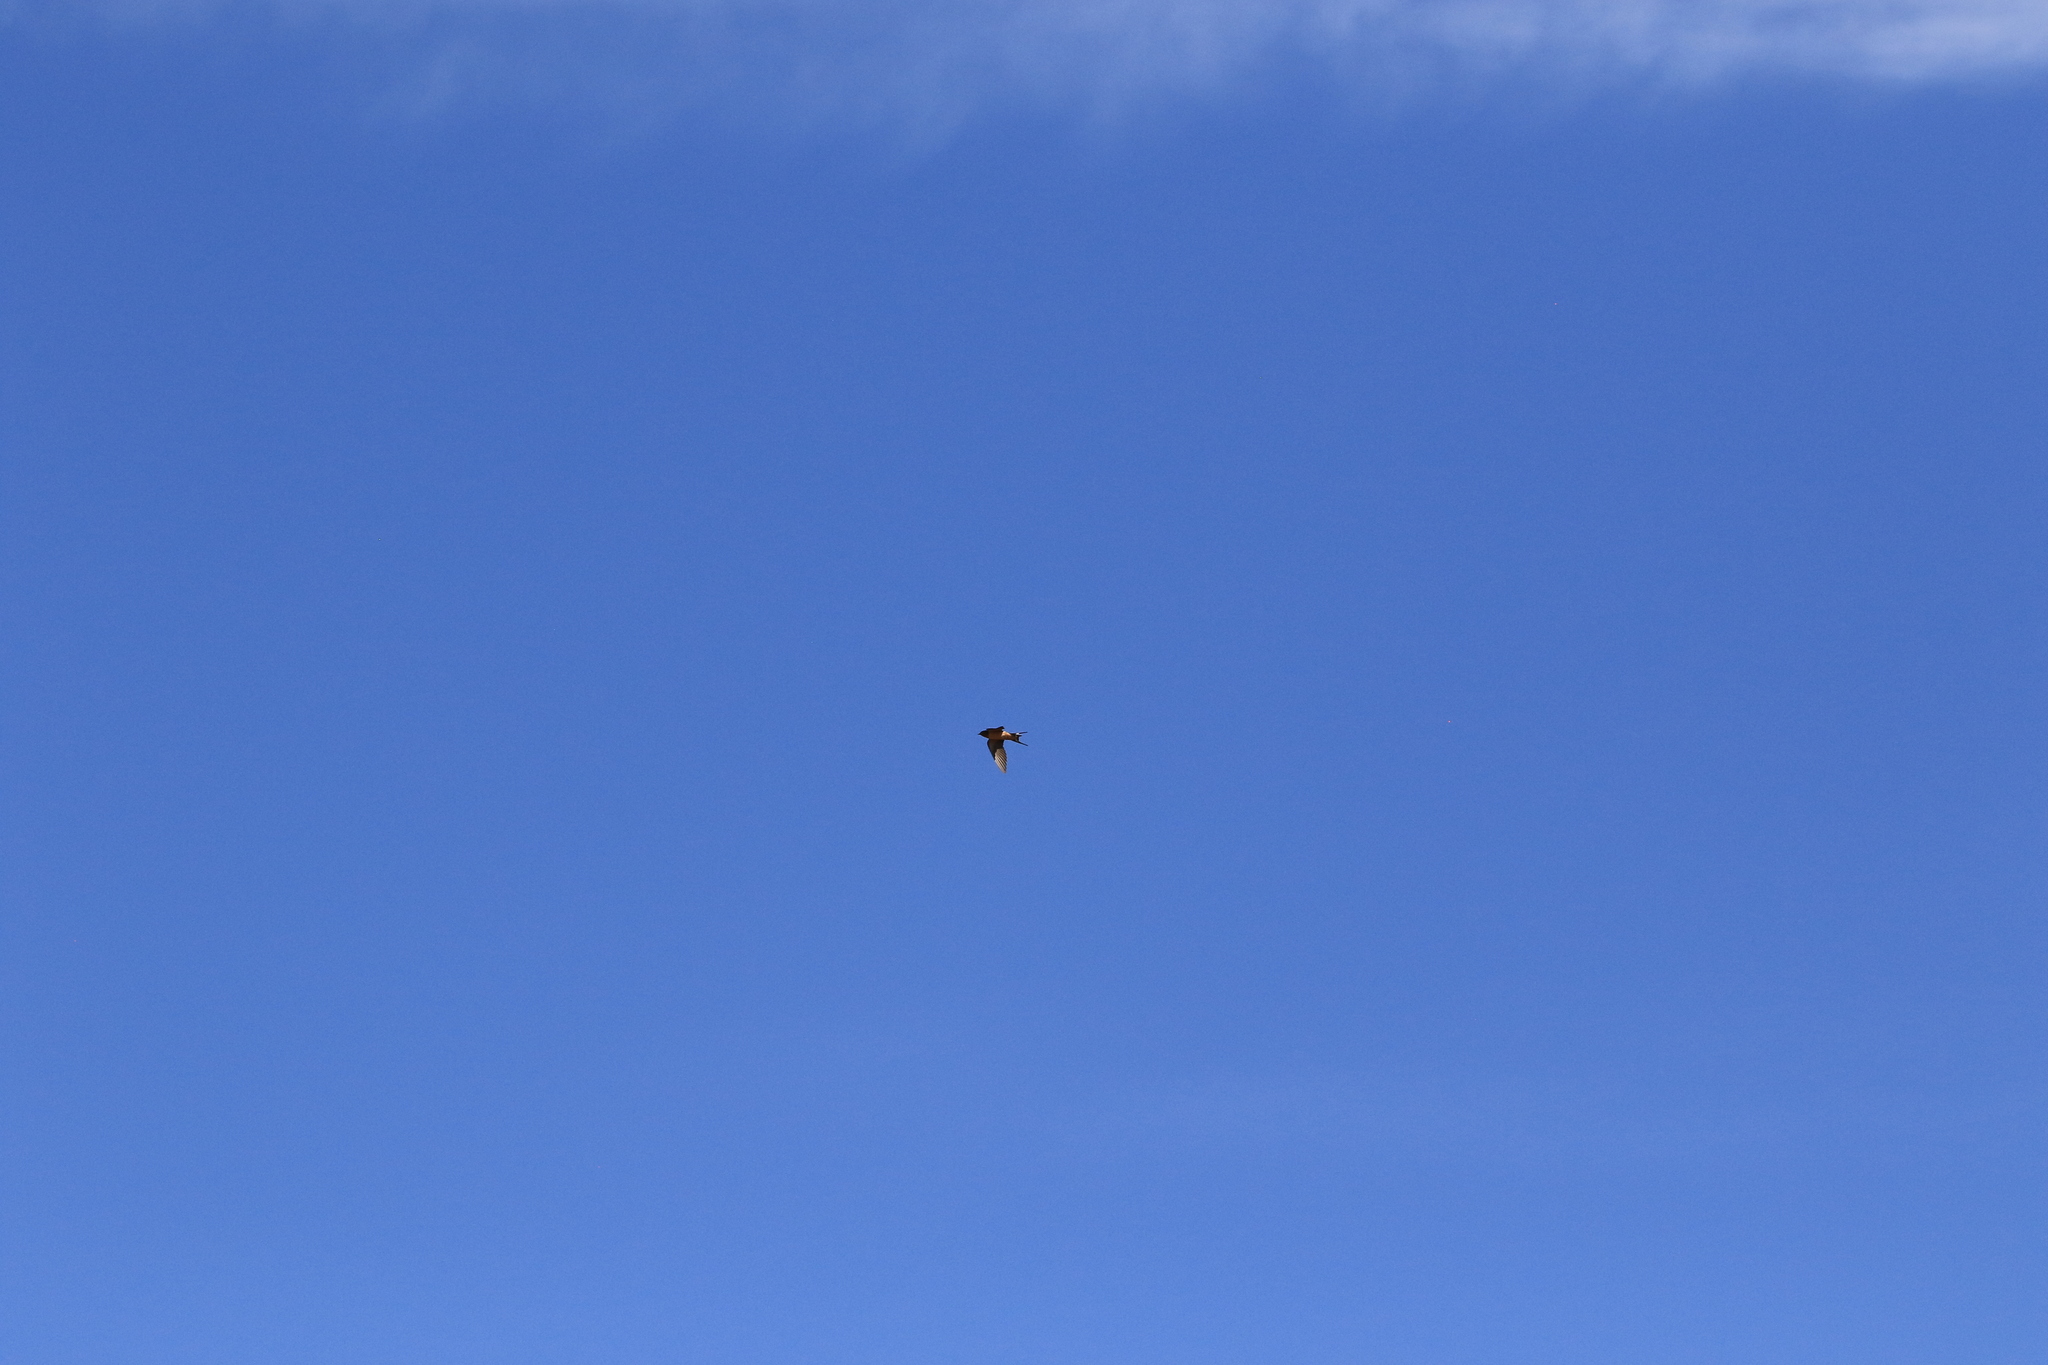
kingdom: Animalia
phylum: Chordata
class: Aves
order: Passeriformes
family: Hirundinidae
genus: Hirundo
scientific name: Hirundo rustica
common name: Barn swallow
